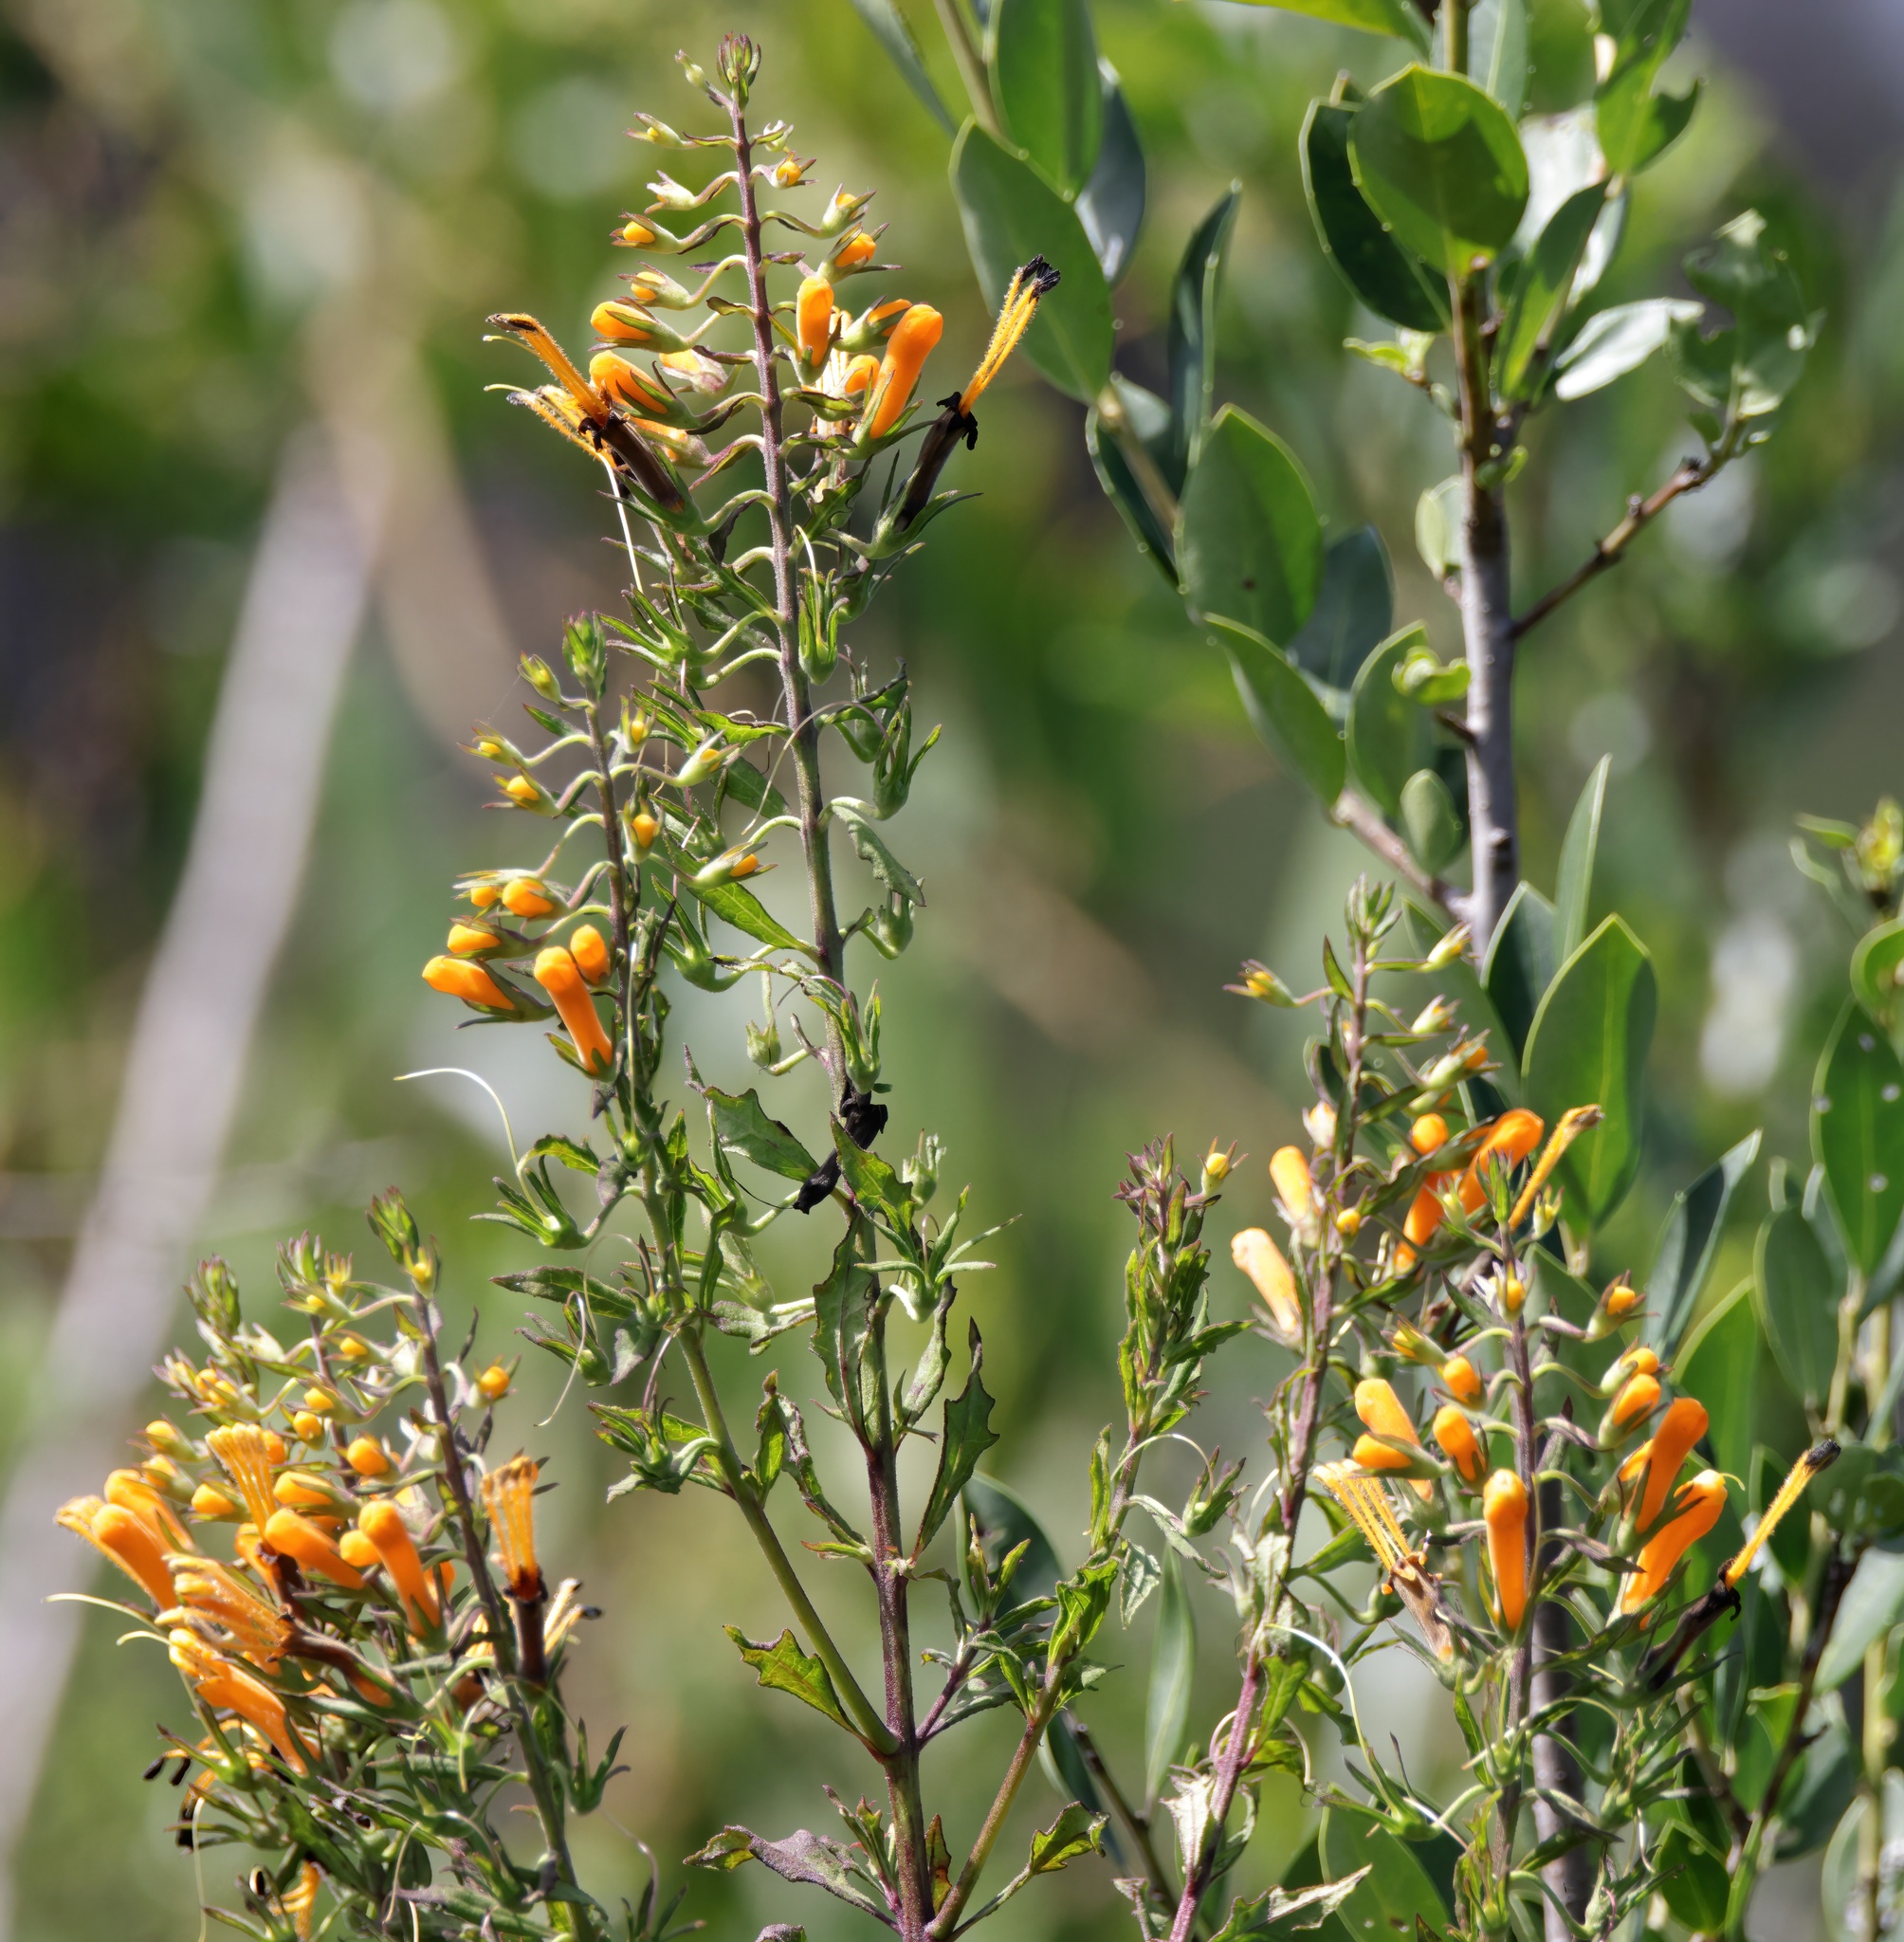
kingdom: Plantae
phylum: Tracheophyta
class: Magnoliopsida
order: Lamiales
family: Orobanchaceae
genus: Macranthera
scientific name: Macranthera flammea
